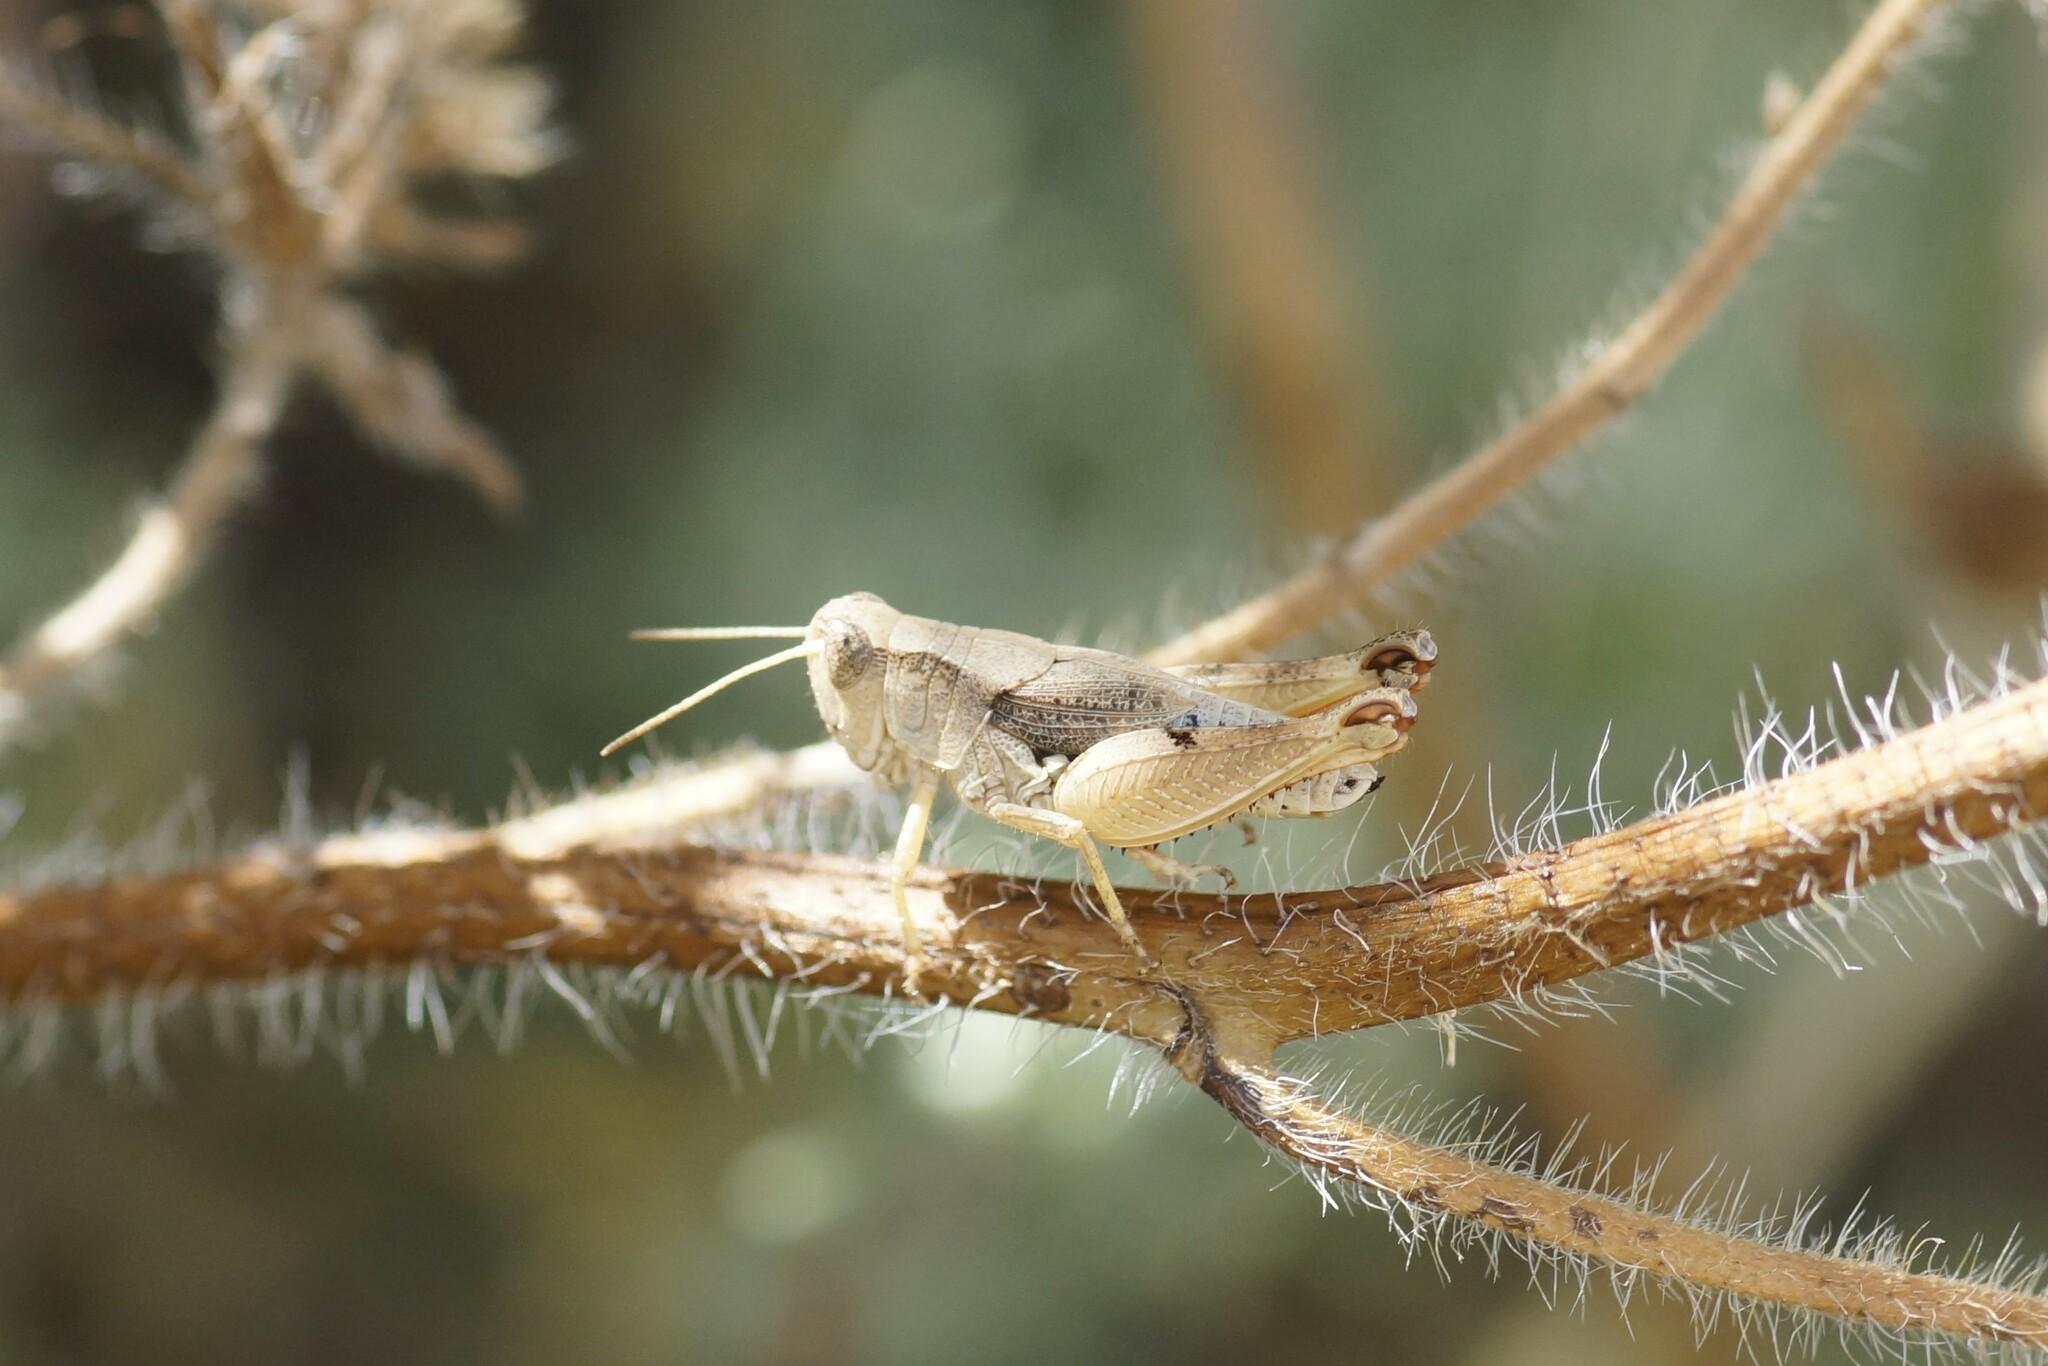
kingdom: Animalia
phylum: Arthropoda
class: Insecta
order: Orthoptera
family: Acrididae
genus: Phaulacridium
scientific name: Phaulacridium vittatum
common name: Wingless grasshopper
